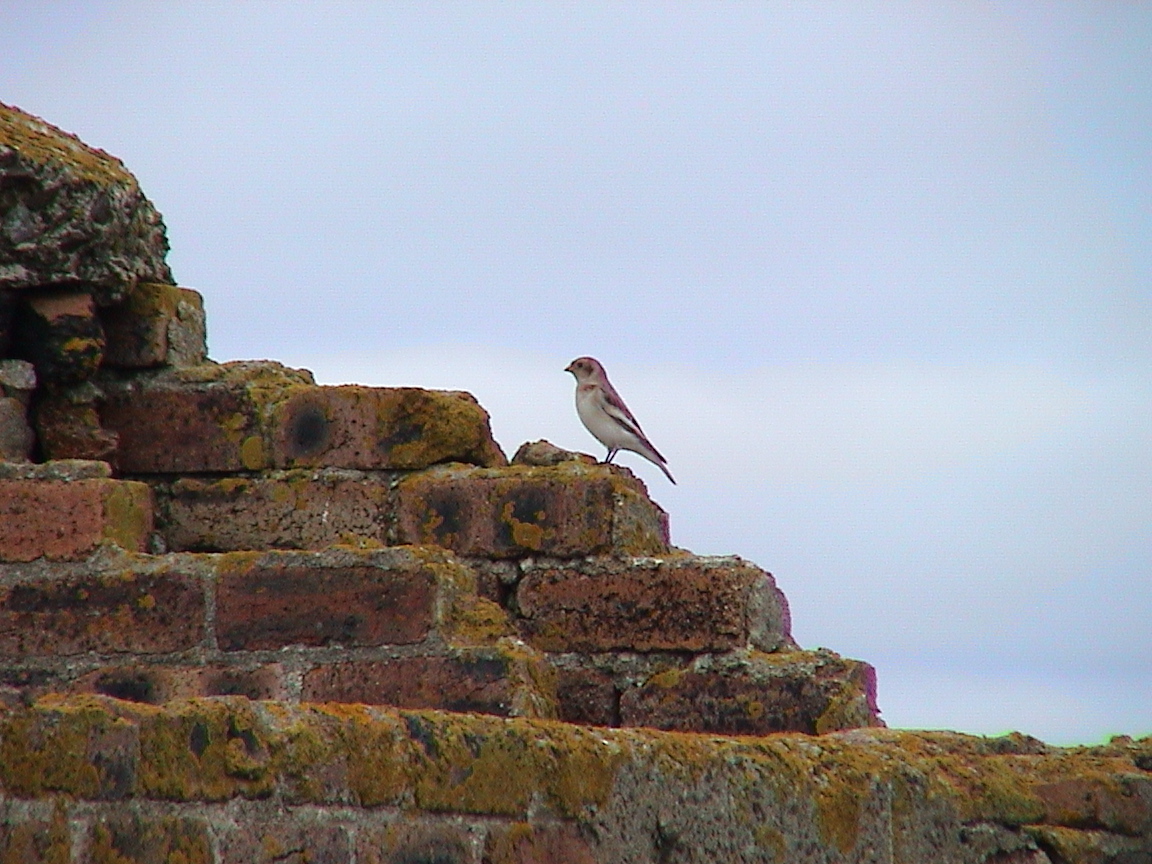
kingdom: Animalia
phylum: Chordata
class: Aves
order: Passeriformes
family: Calcariidae
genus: Plectrophenax
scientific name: Plectrophenax nivalis
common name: Snow bunting
